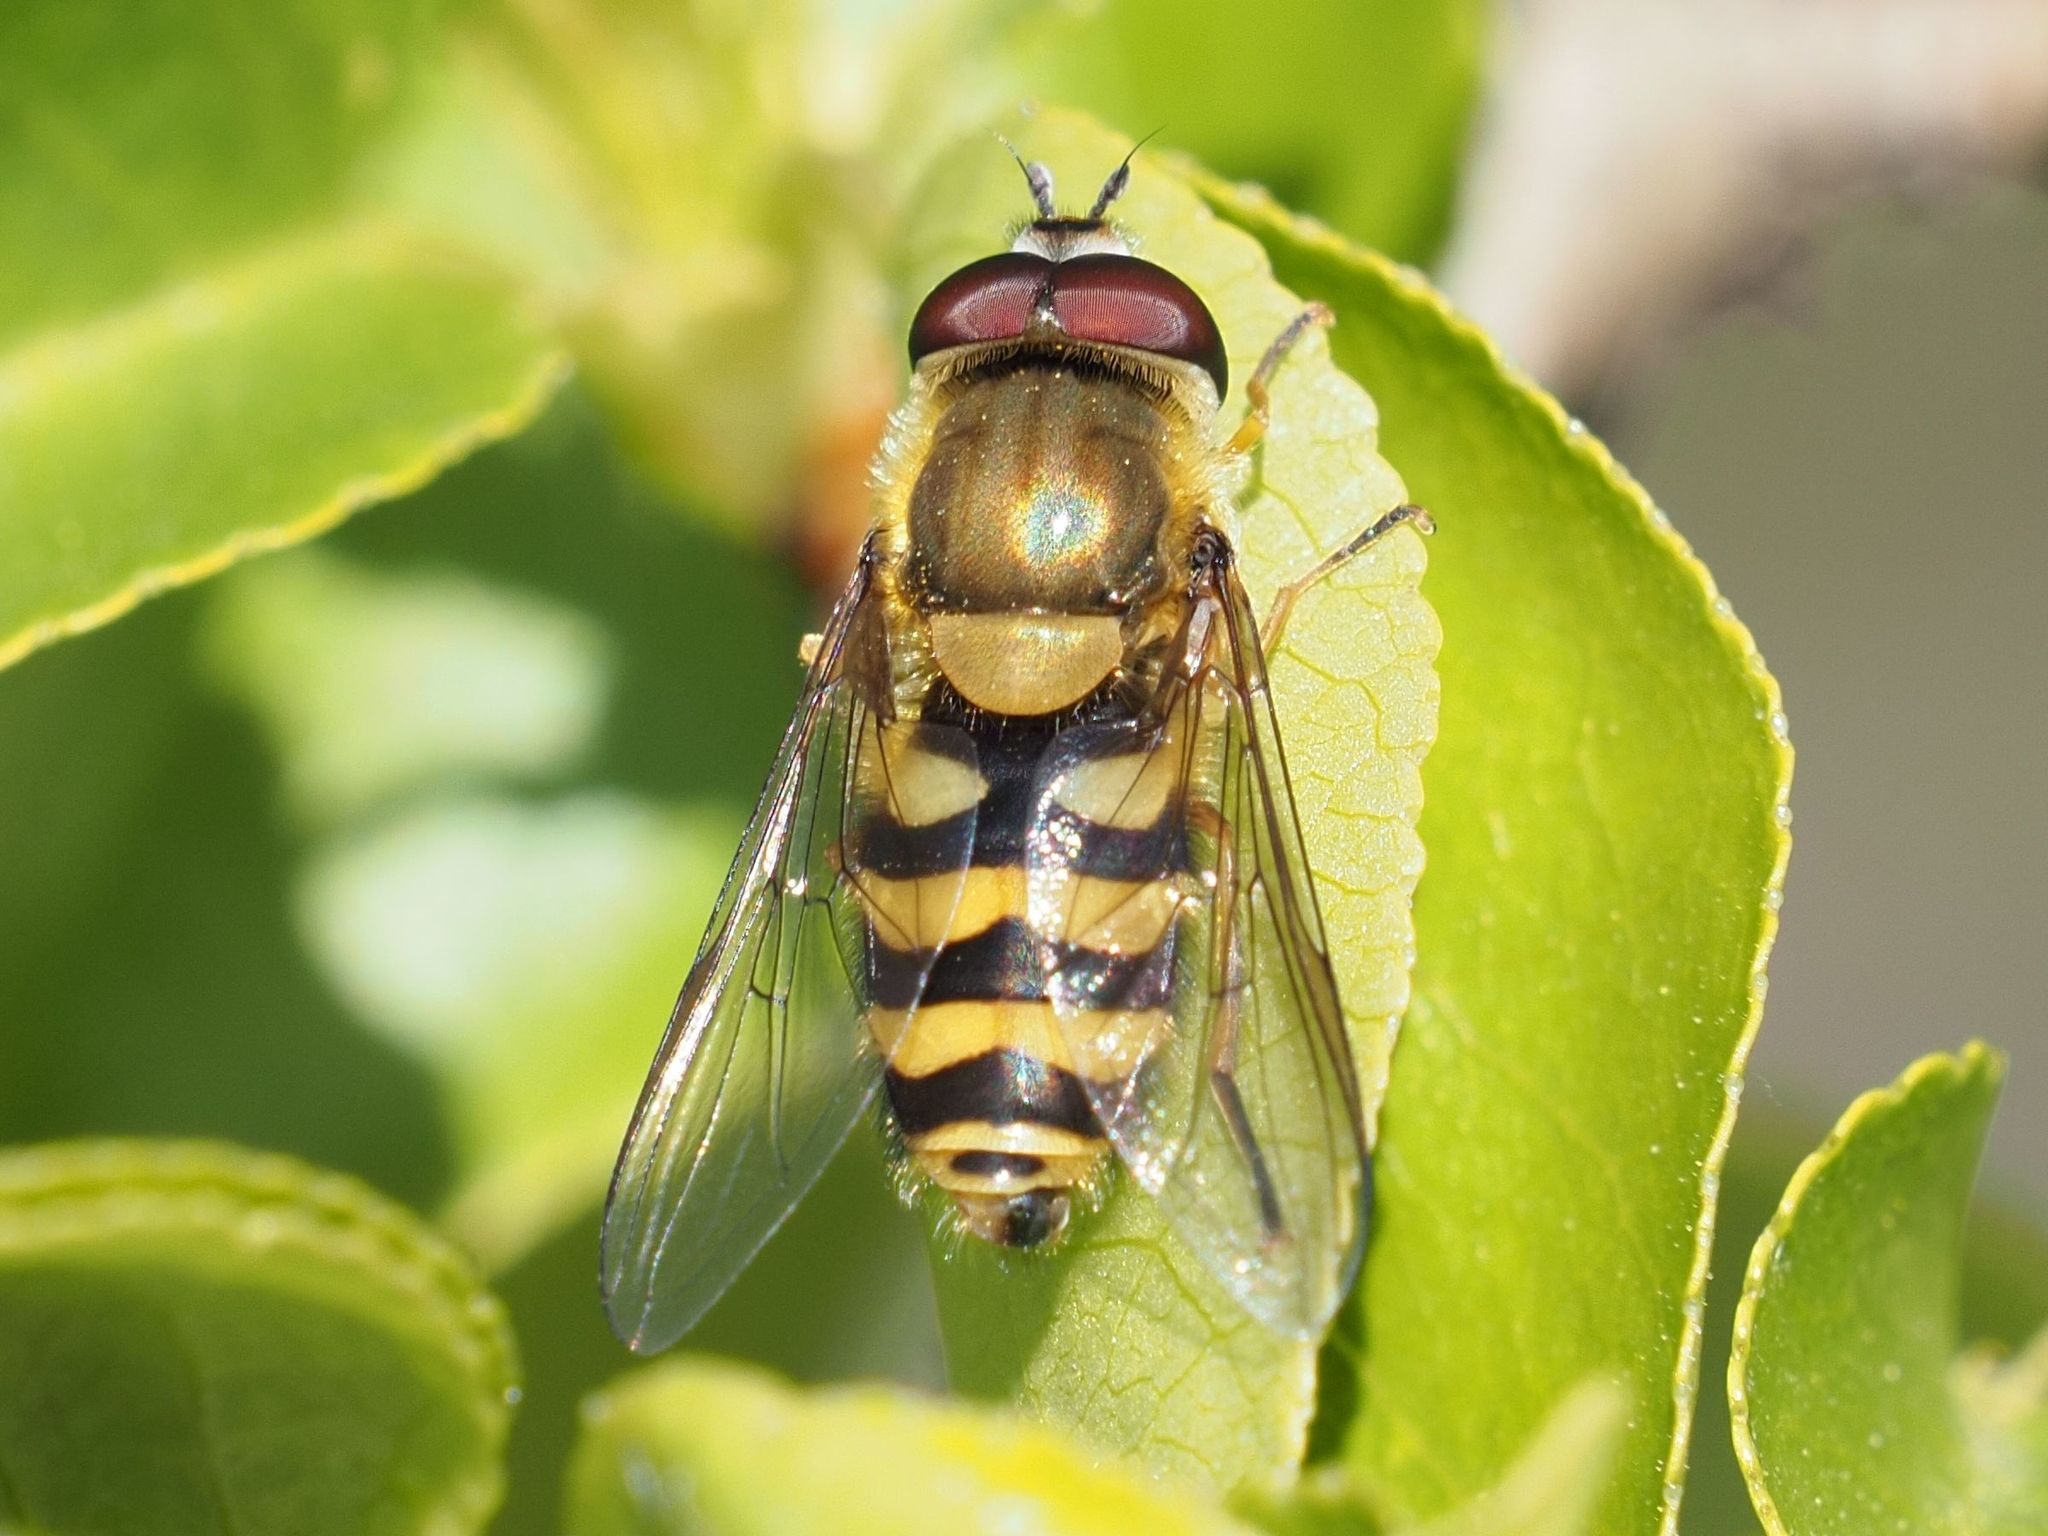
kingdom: Animalia
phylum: Arthropoda
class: Insecta
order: Diptera
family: Syrphidae
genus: Syrphus
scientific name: Syrphus
